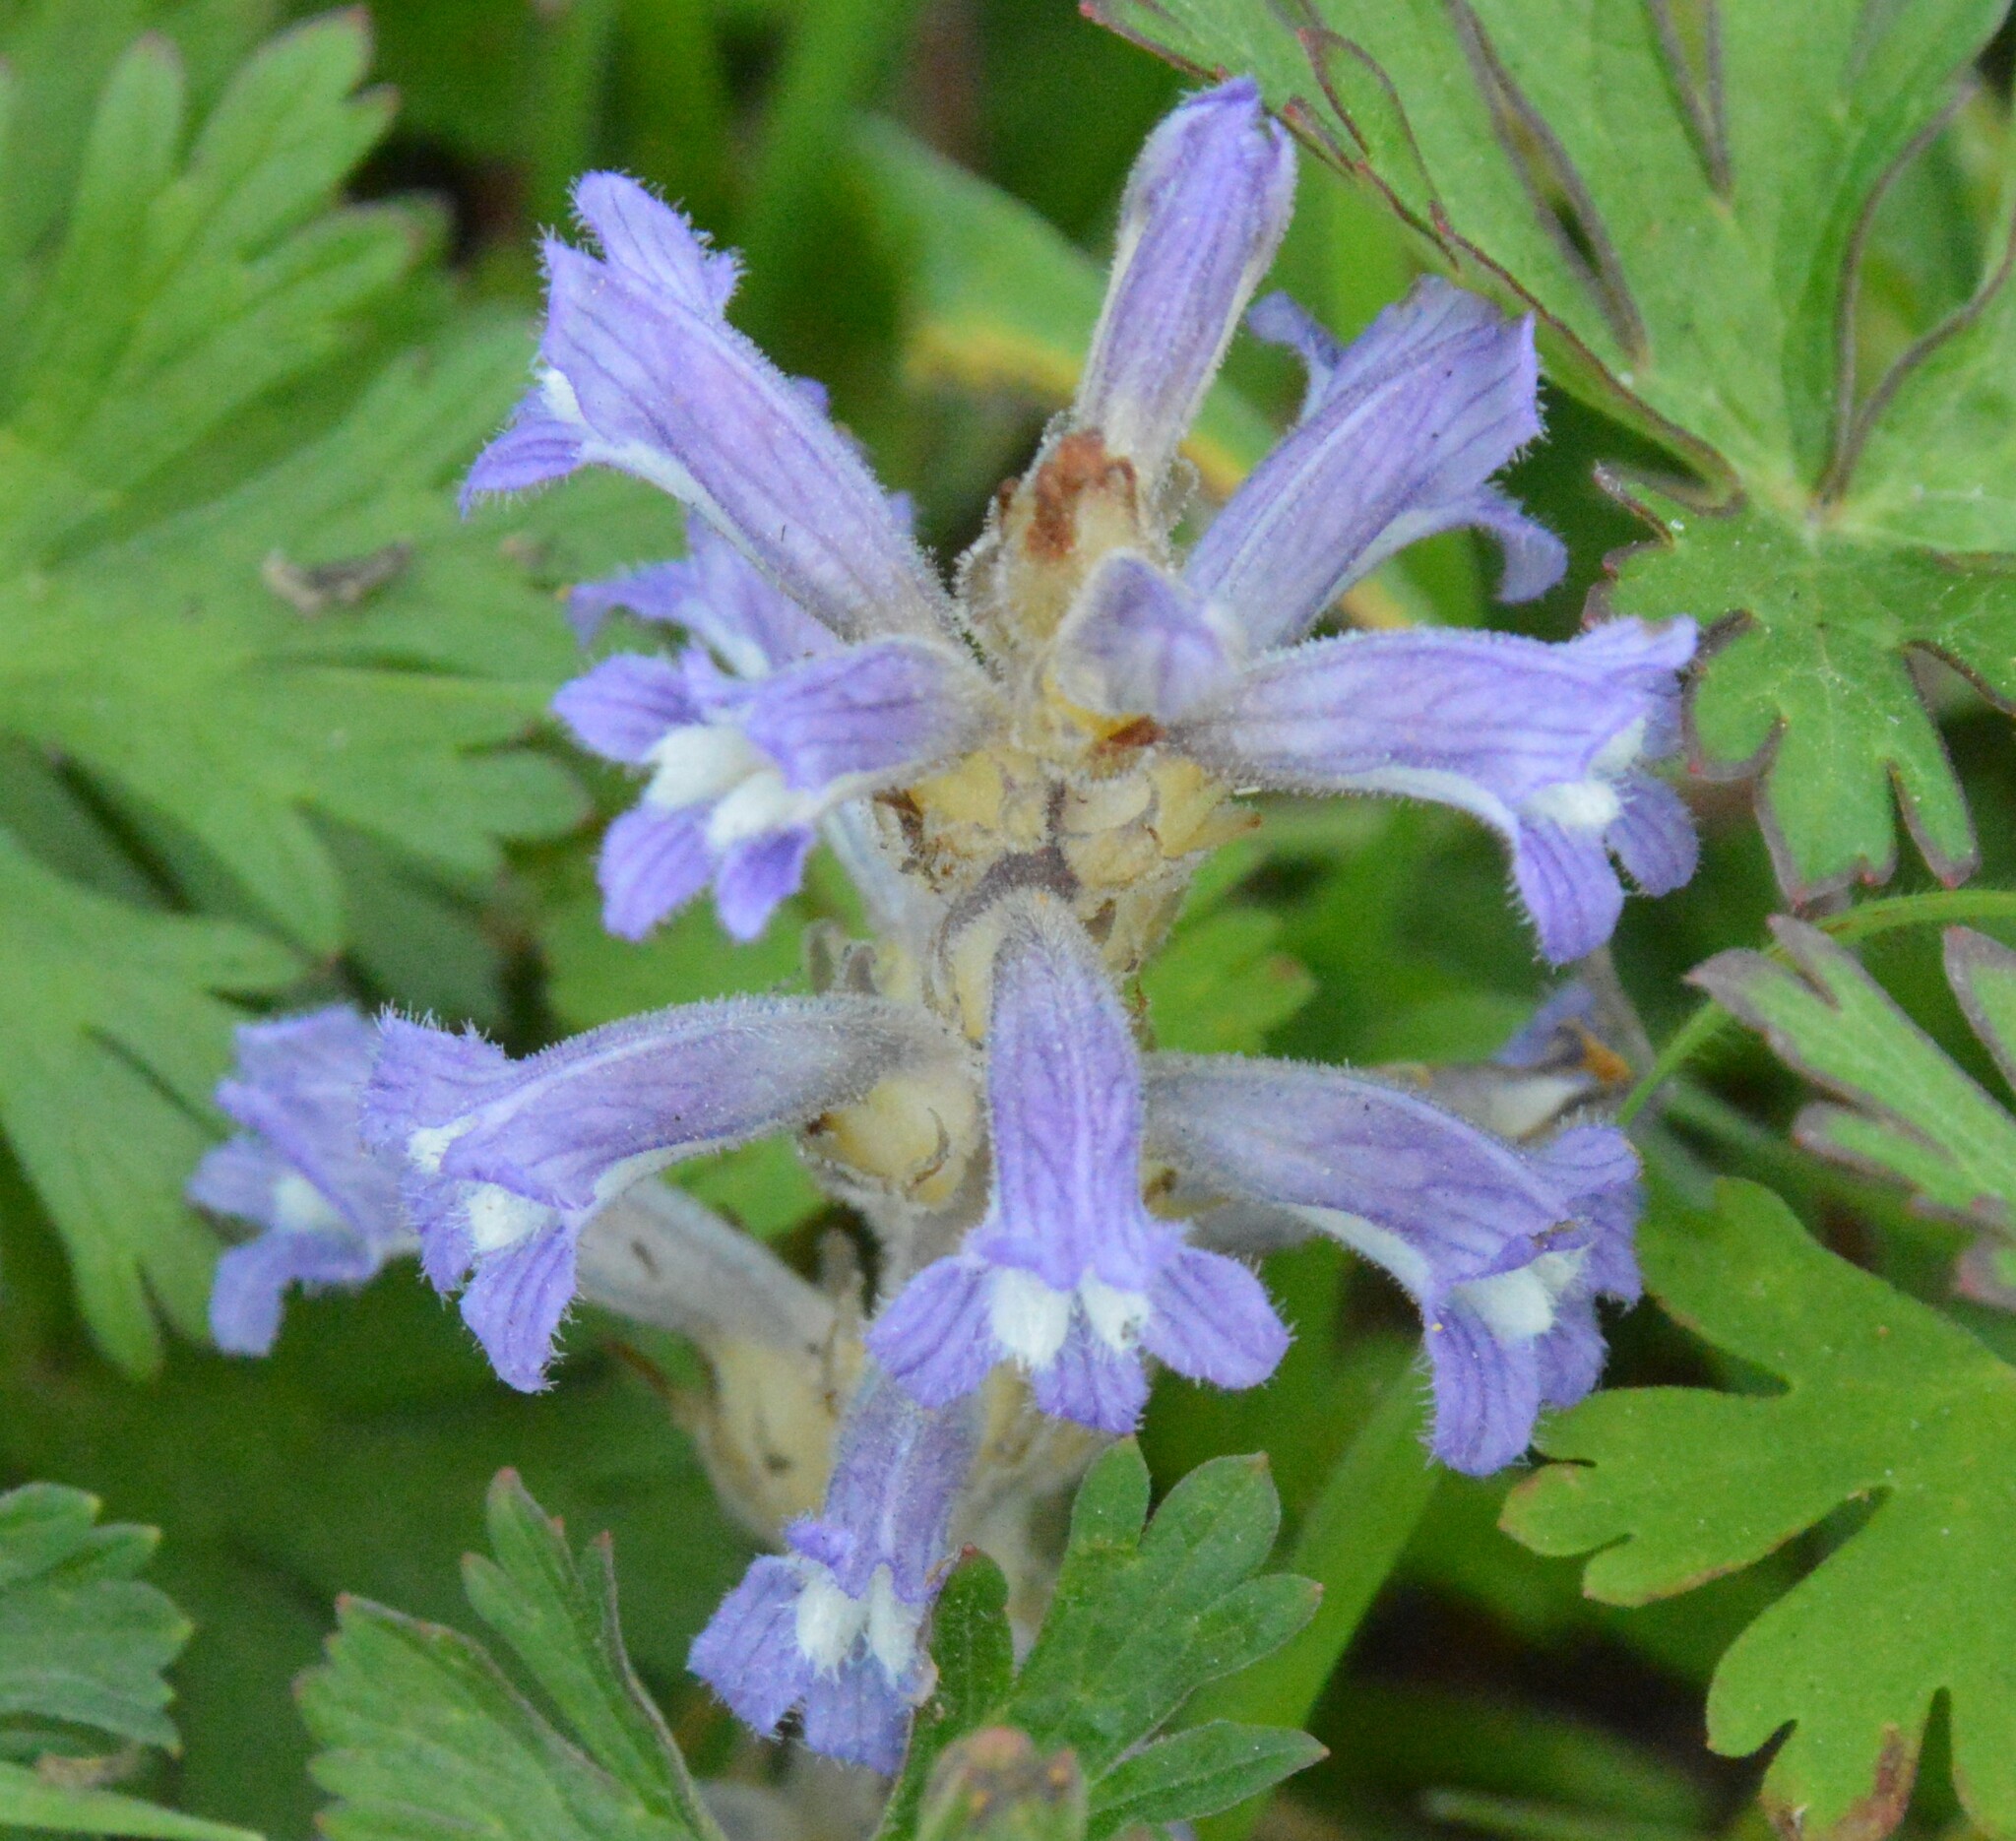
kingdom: Plantae
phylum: Tracheophyta
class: Magnoliopsida
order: Lamiales
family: Orobanchaceae
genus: Phelipanche
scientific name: Phelipanche mutelii
